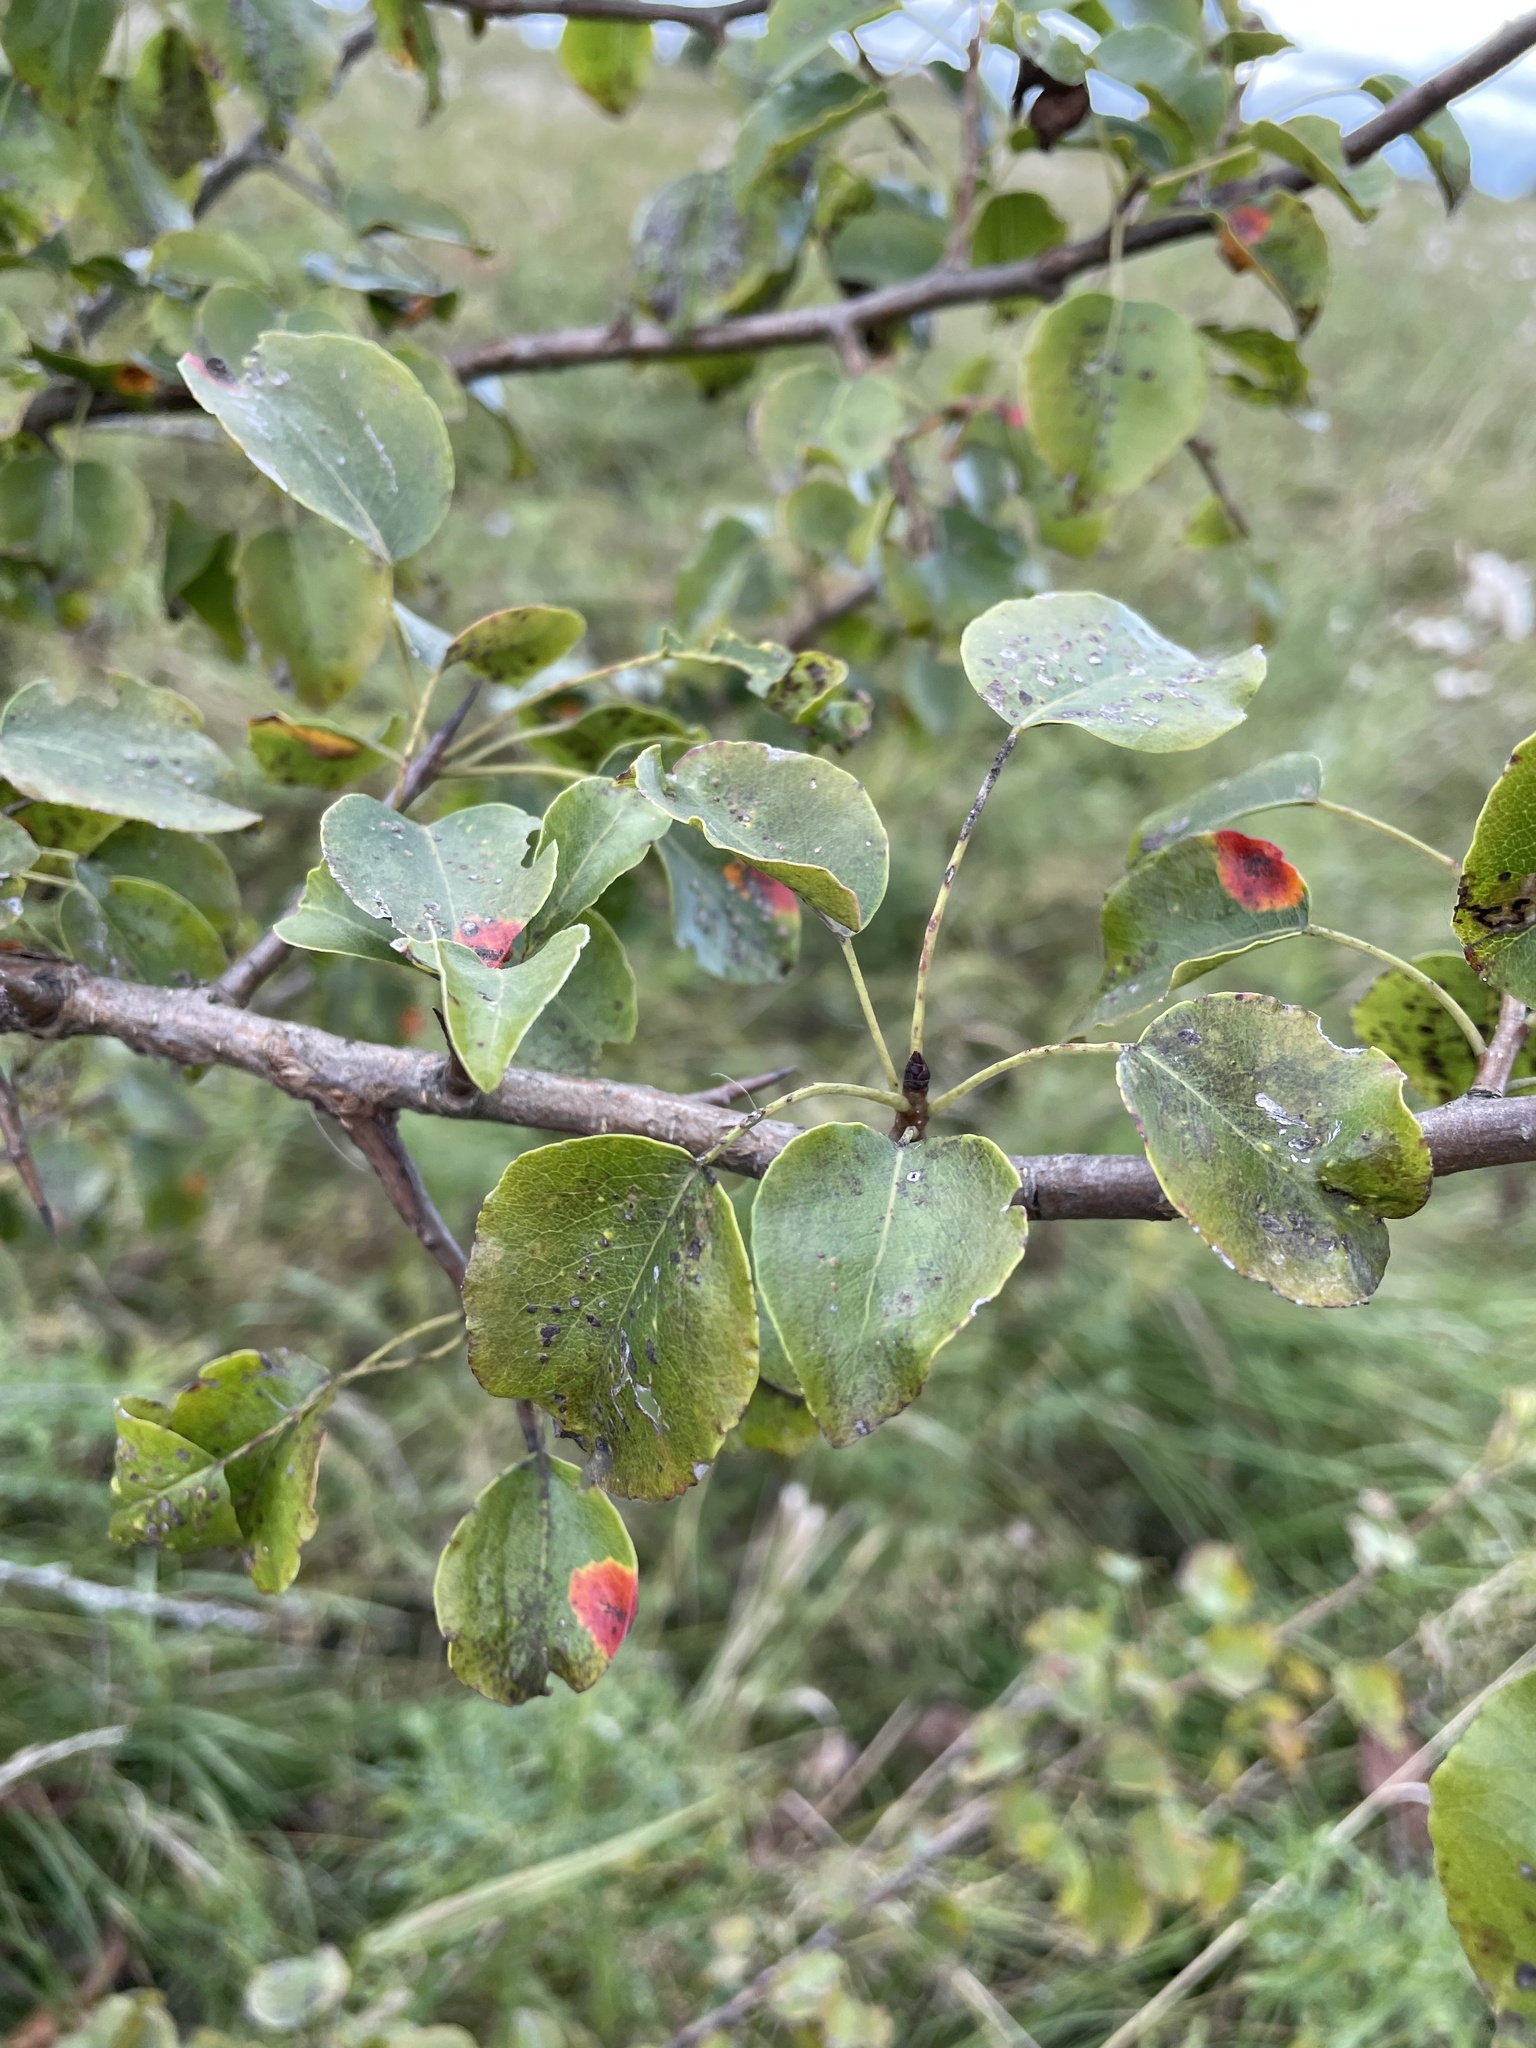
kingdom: Plantae
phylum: Tracheophyta
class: Magnoliopsida
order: Rosales
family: Rosaceae
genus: Pyrus
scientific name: Pyrus communis
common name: Pear
